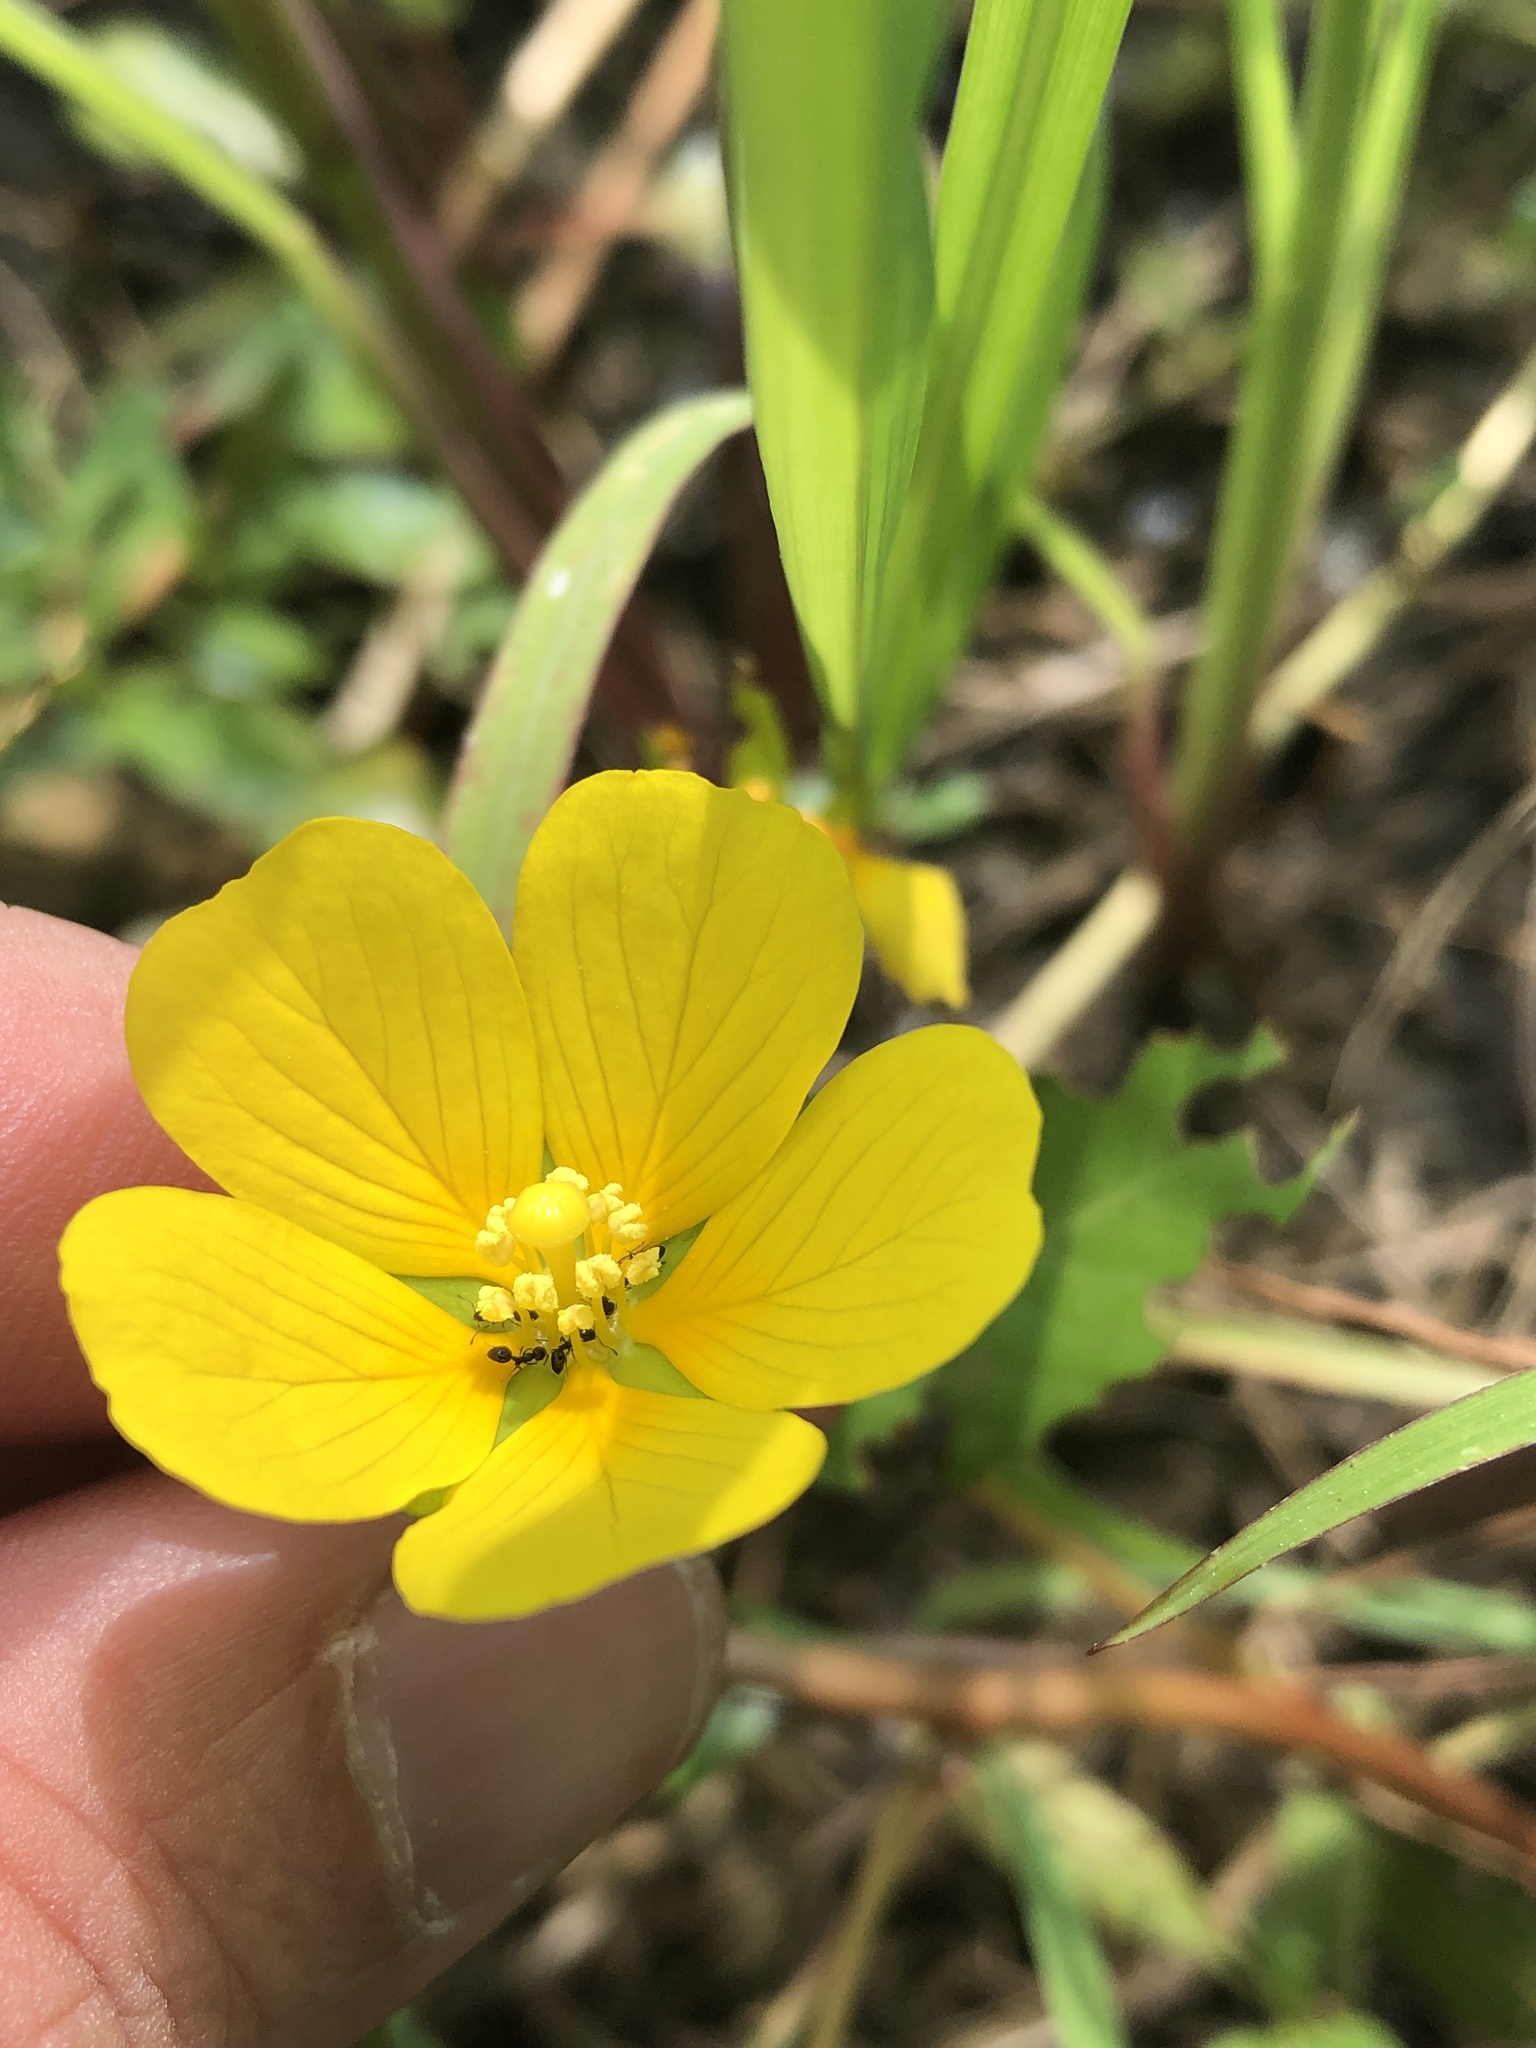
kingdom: Plantae
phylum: Tracheophyta
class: Magnoliopsida
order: Myrtales
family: Onagraceae
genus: Ludwigia
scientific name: Ludwigia peploides
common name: Floating primrose-willow
